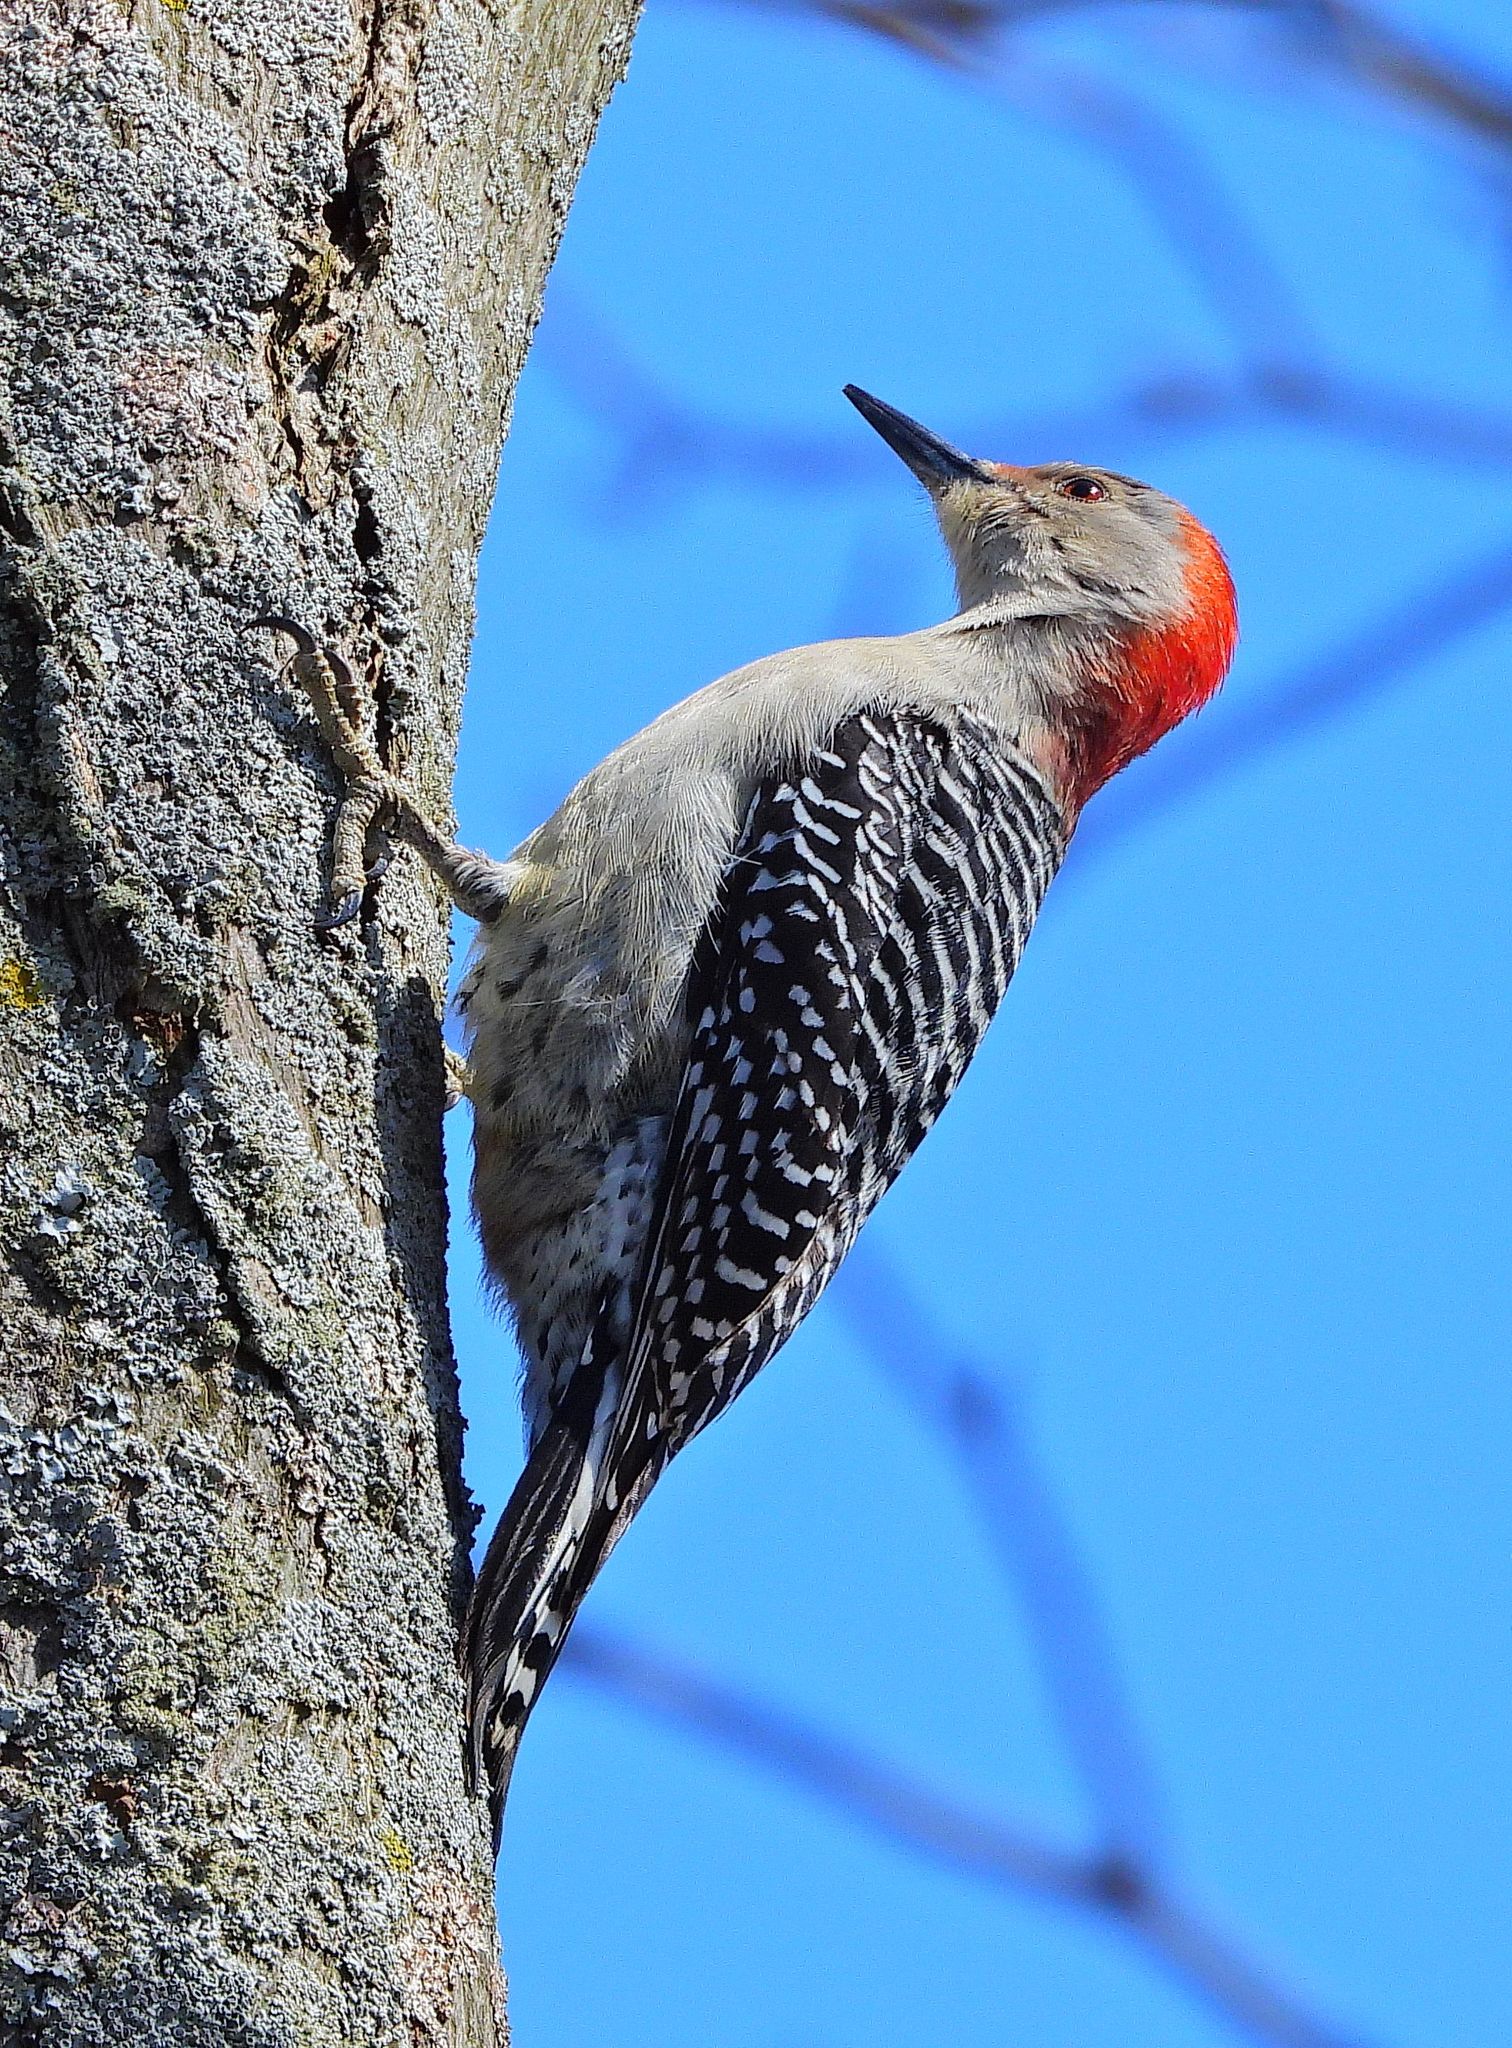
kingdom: Animalia
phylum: Chordata
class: Aves
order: Piciformes
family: Picidae
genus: Melanerpes
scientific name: Melanerpes carolinus
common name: Red-bellied woodpecker
